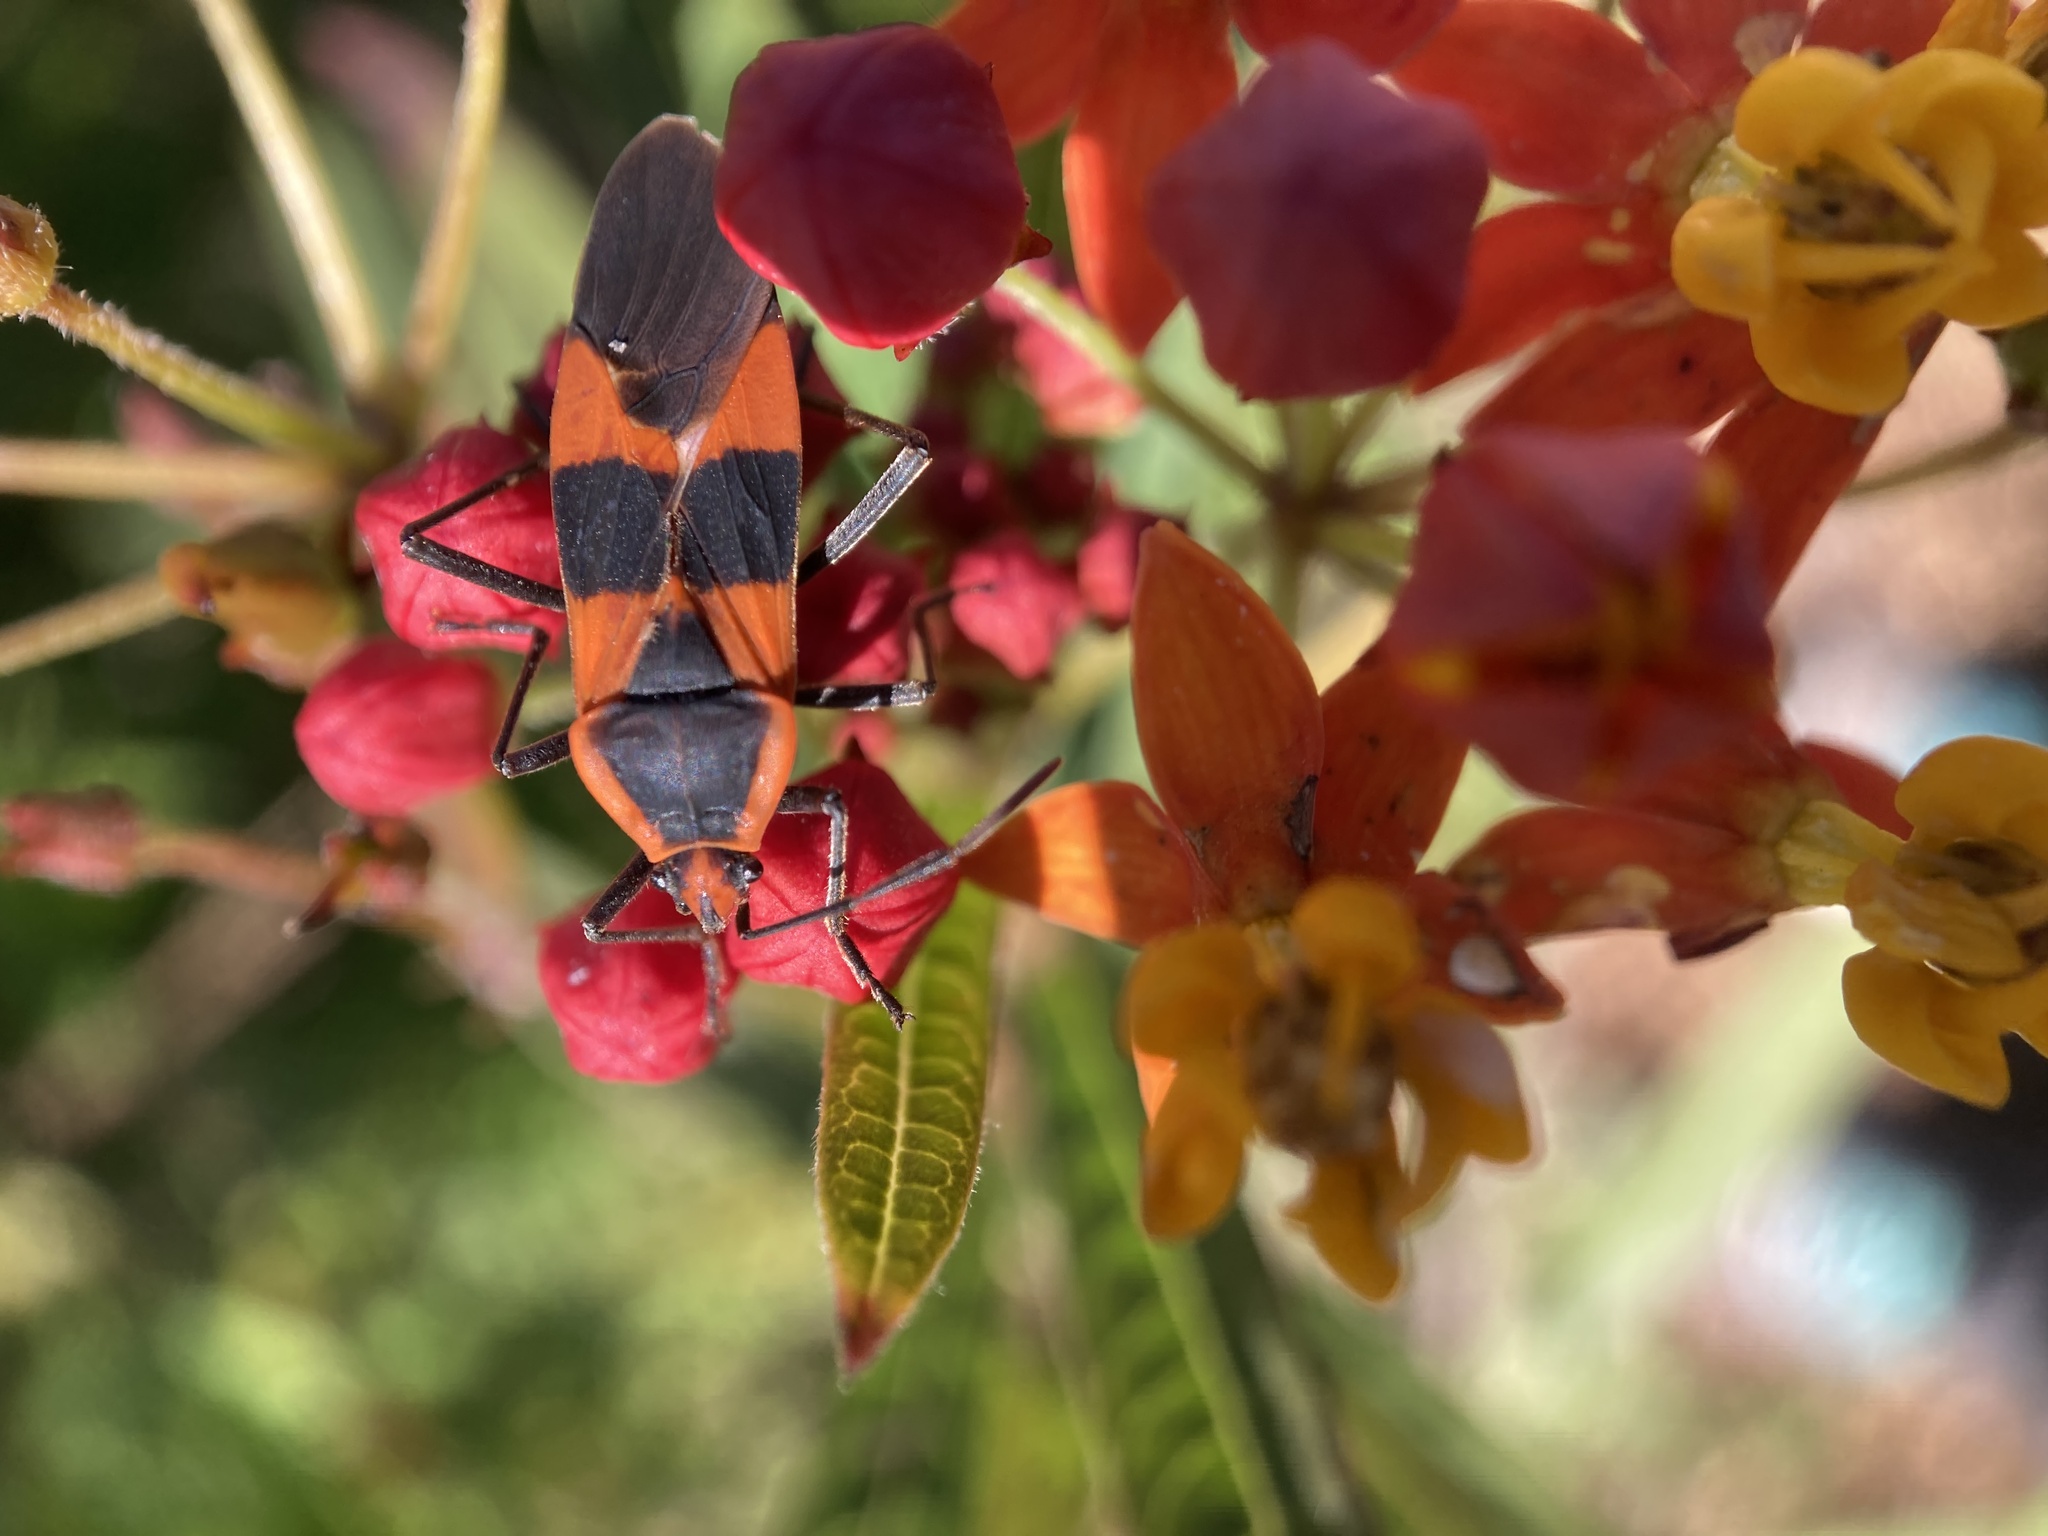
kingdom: Animalia
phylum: Arthropoda
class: Insecta
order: Hemiptera
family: Lygaeidae
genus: Oncopeltus
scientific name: Oncopeltus fasciatus
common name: Large milkweed bug
